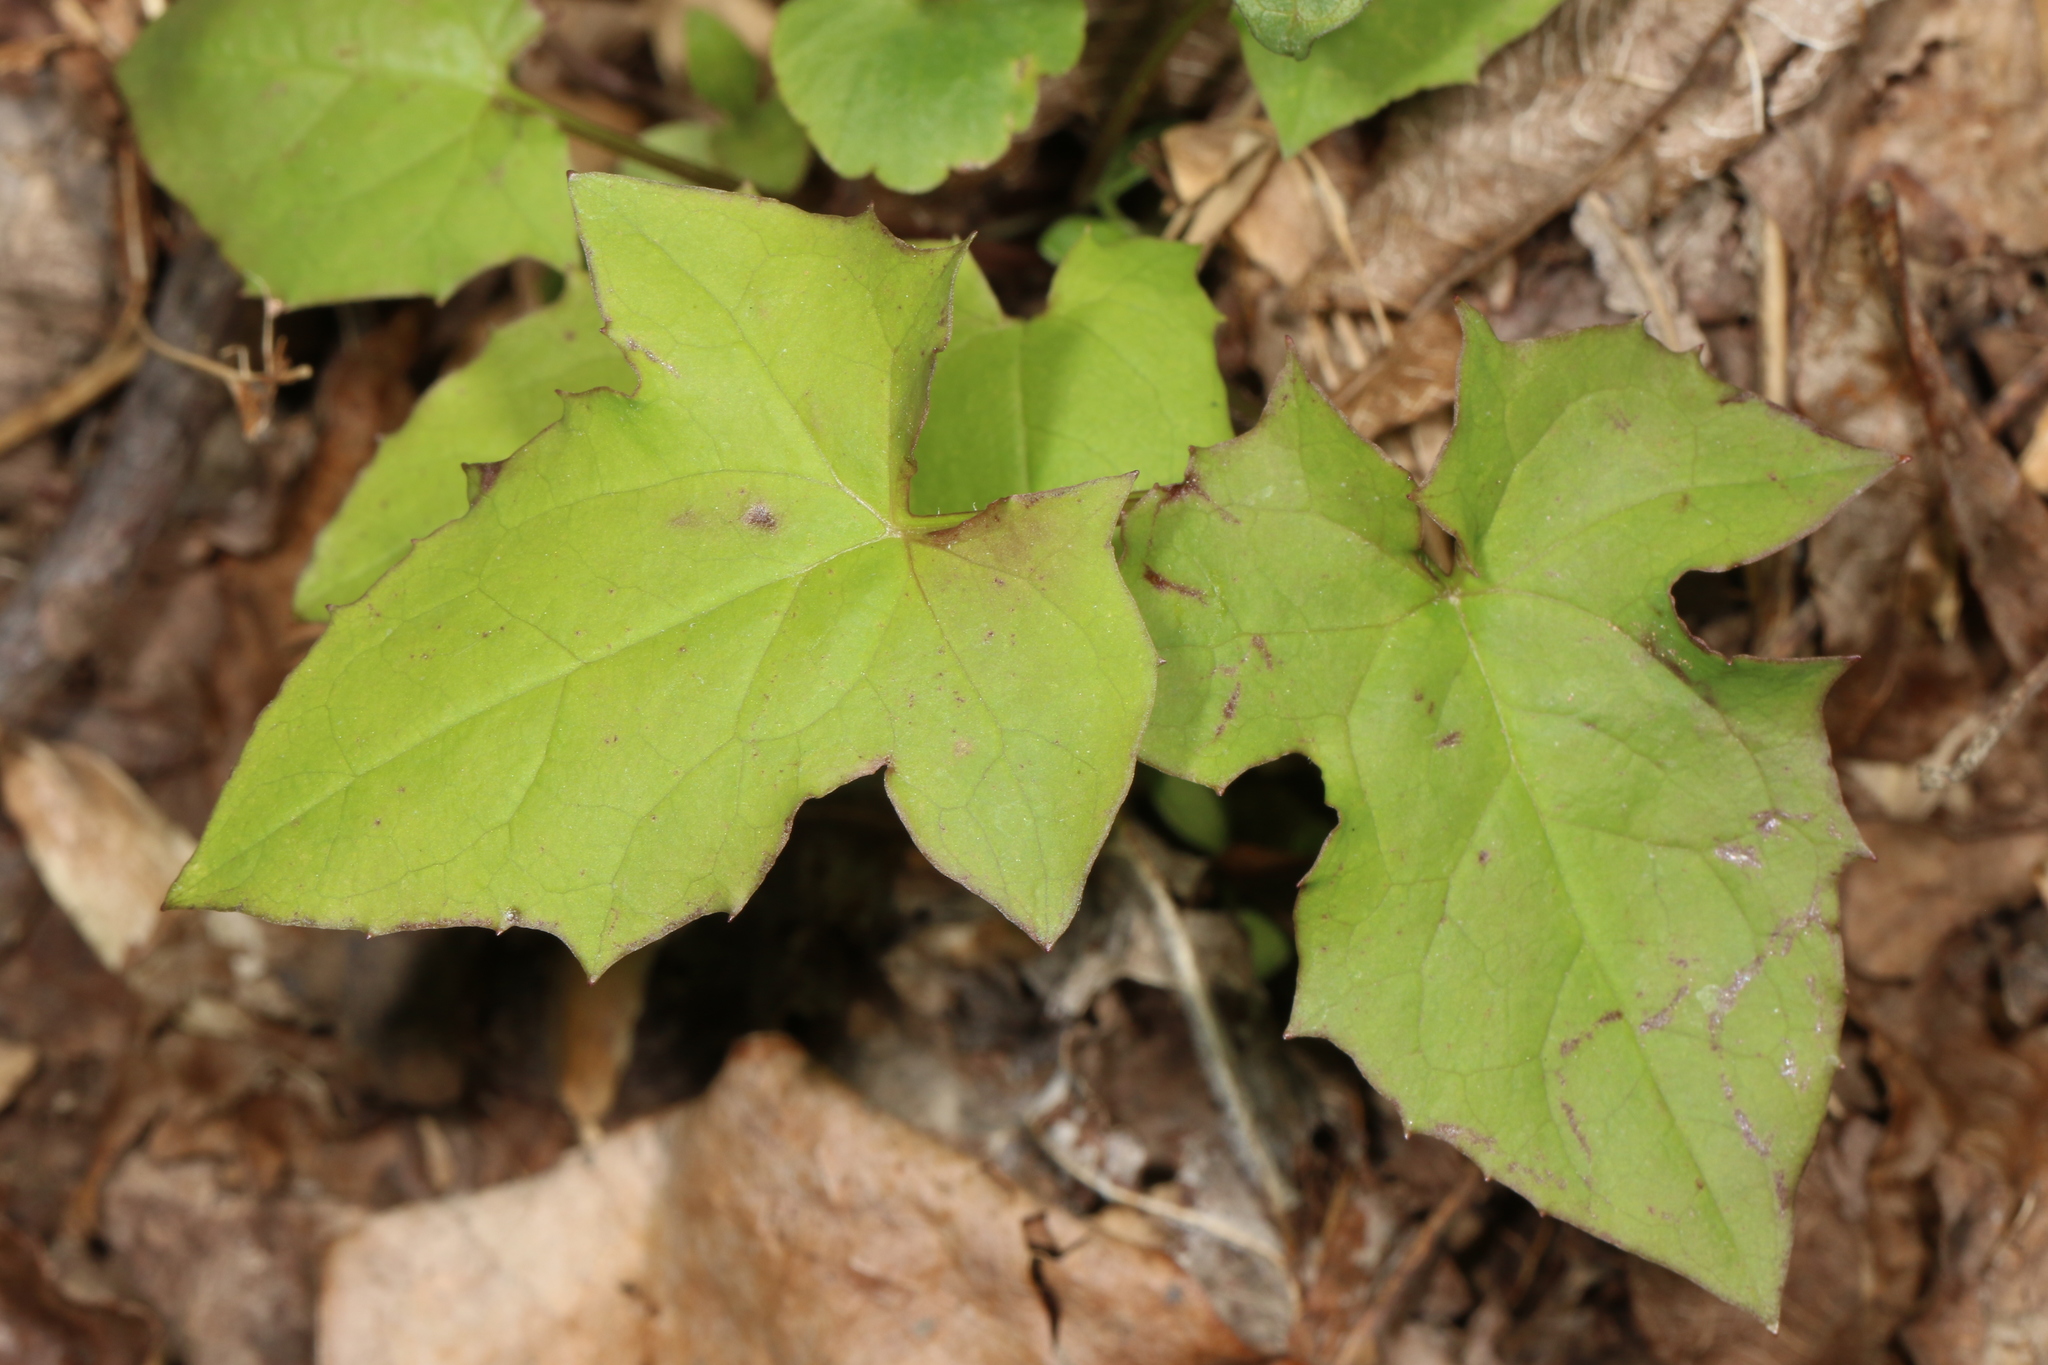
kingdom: Plantae
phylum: Tracheophyta
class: Magnoliopsida
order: Asterales
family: Asteraceae
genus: Nabalus
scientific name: Nabalus albus
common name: White rattlesnakeroot
